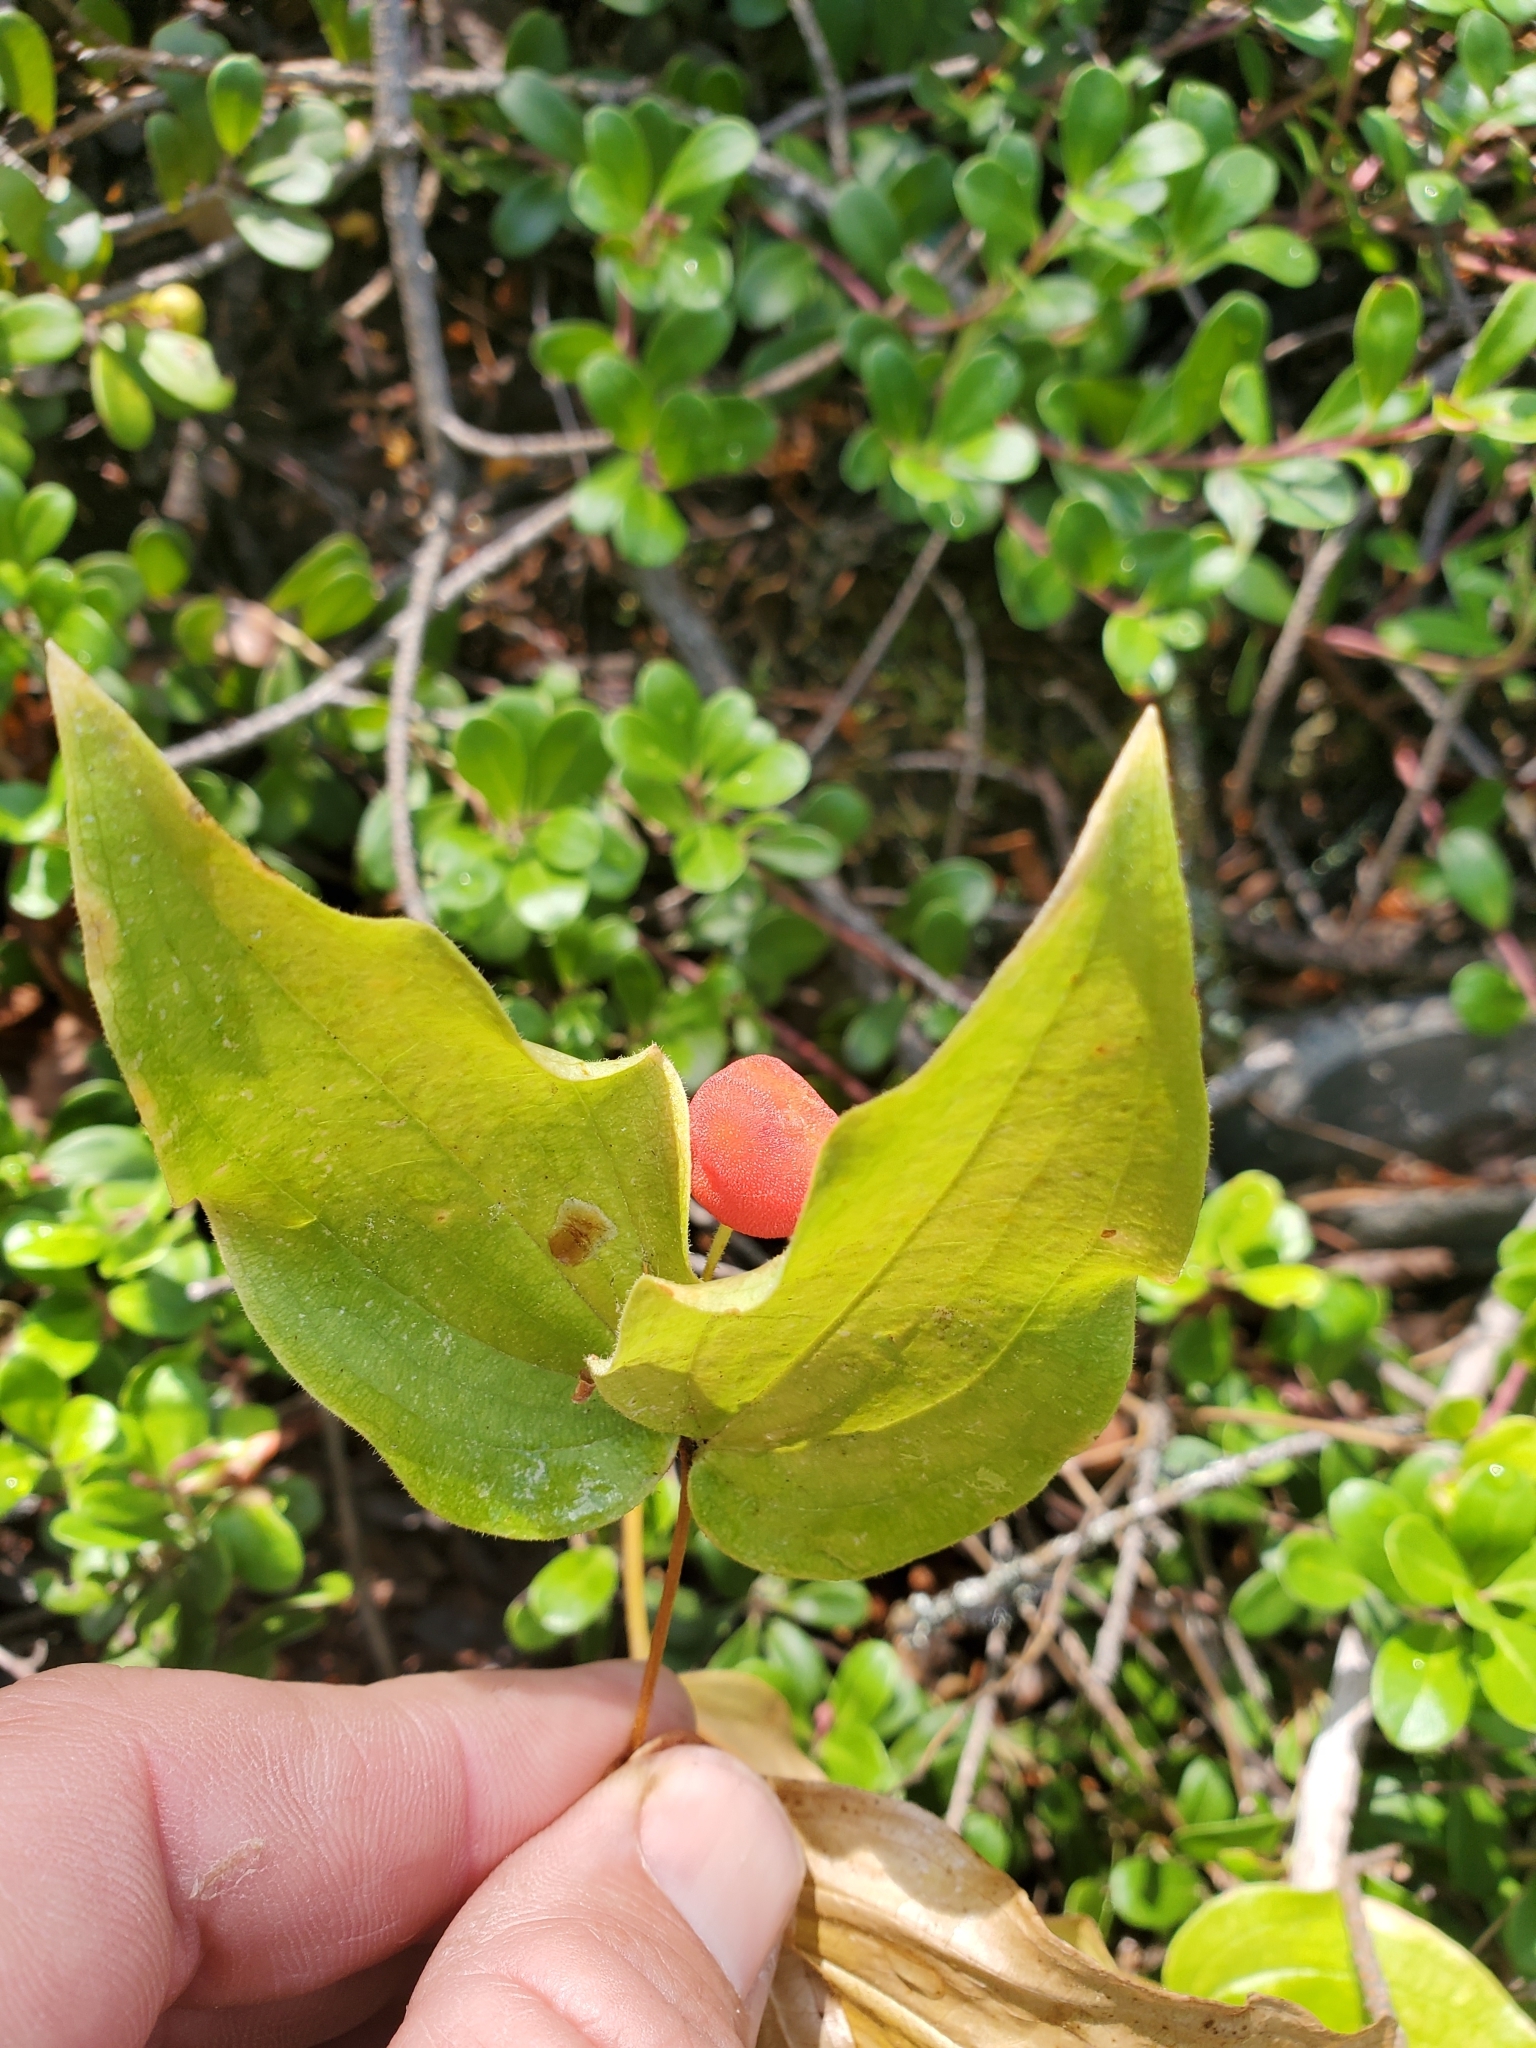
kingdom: Plantae
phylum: Tracheophyta
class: Liliopsida
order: Liliales
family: Liliaceae
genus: Prosartes
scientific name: Prosartes trachycarpa
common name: Rough-fruit fairy-bells
